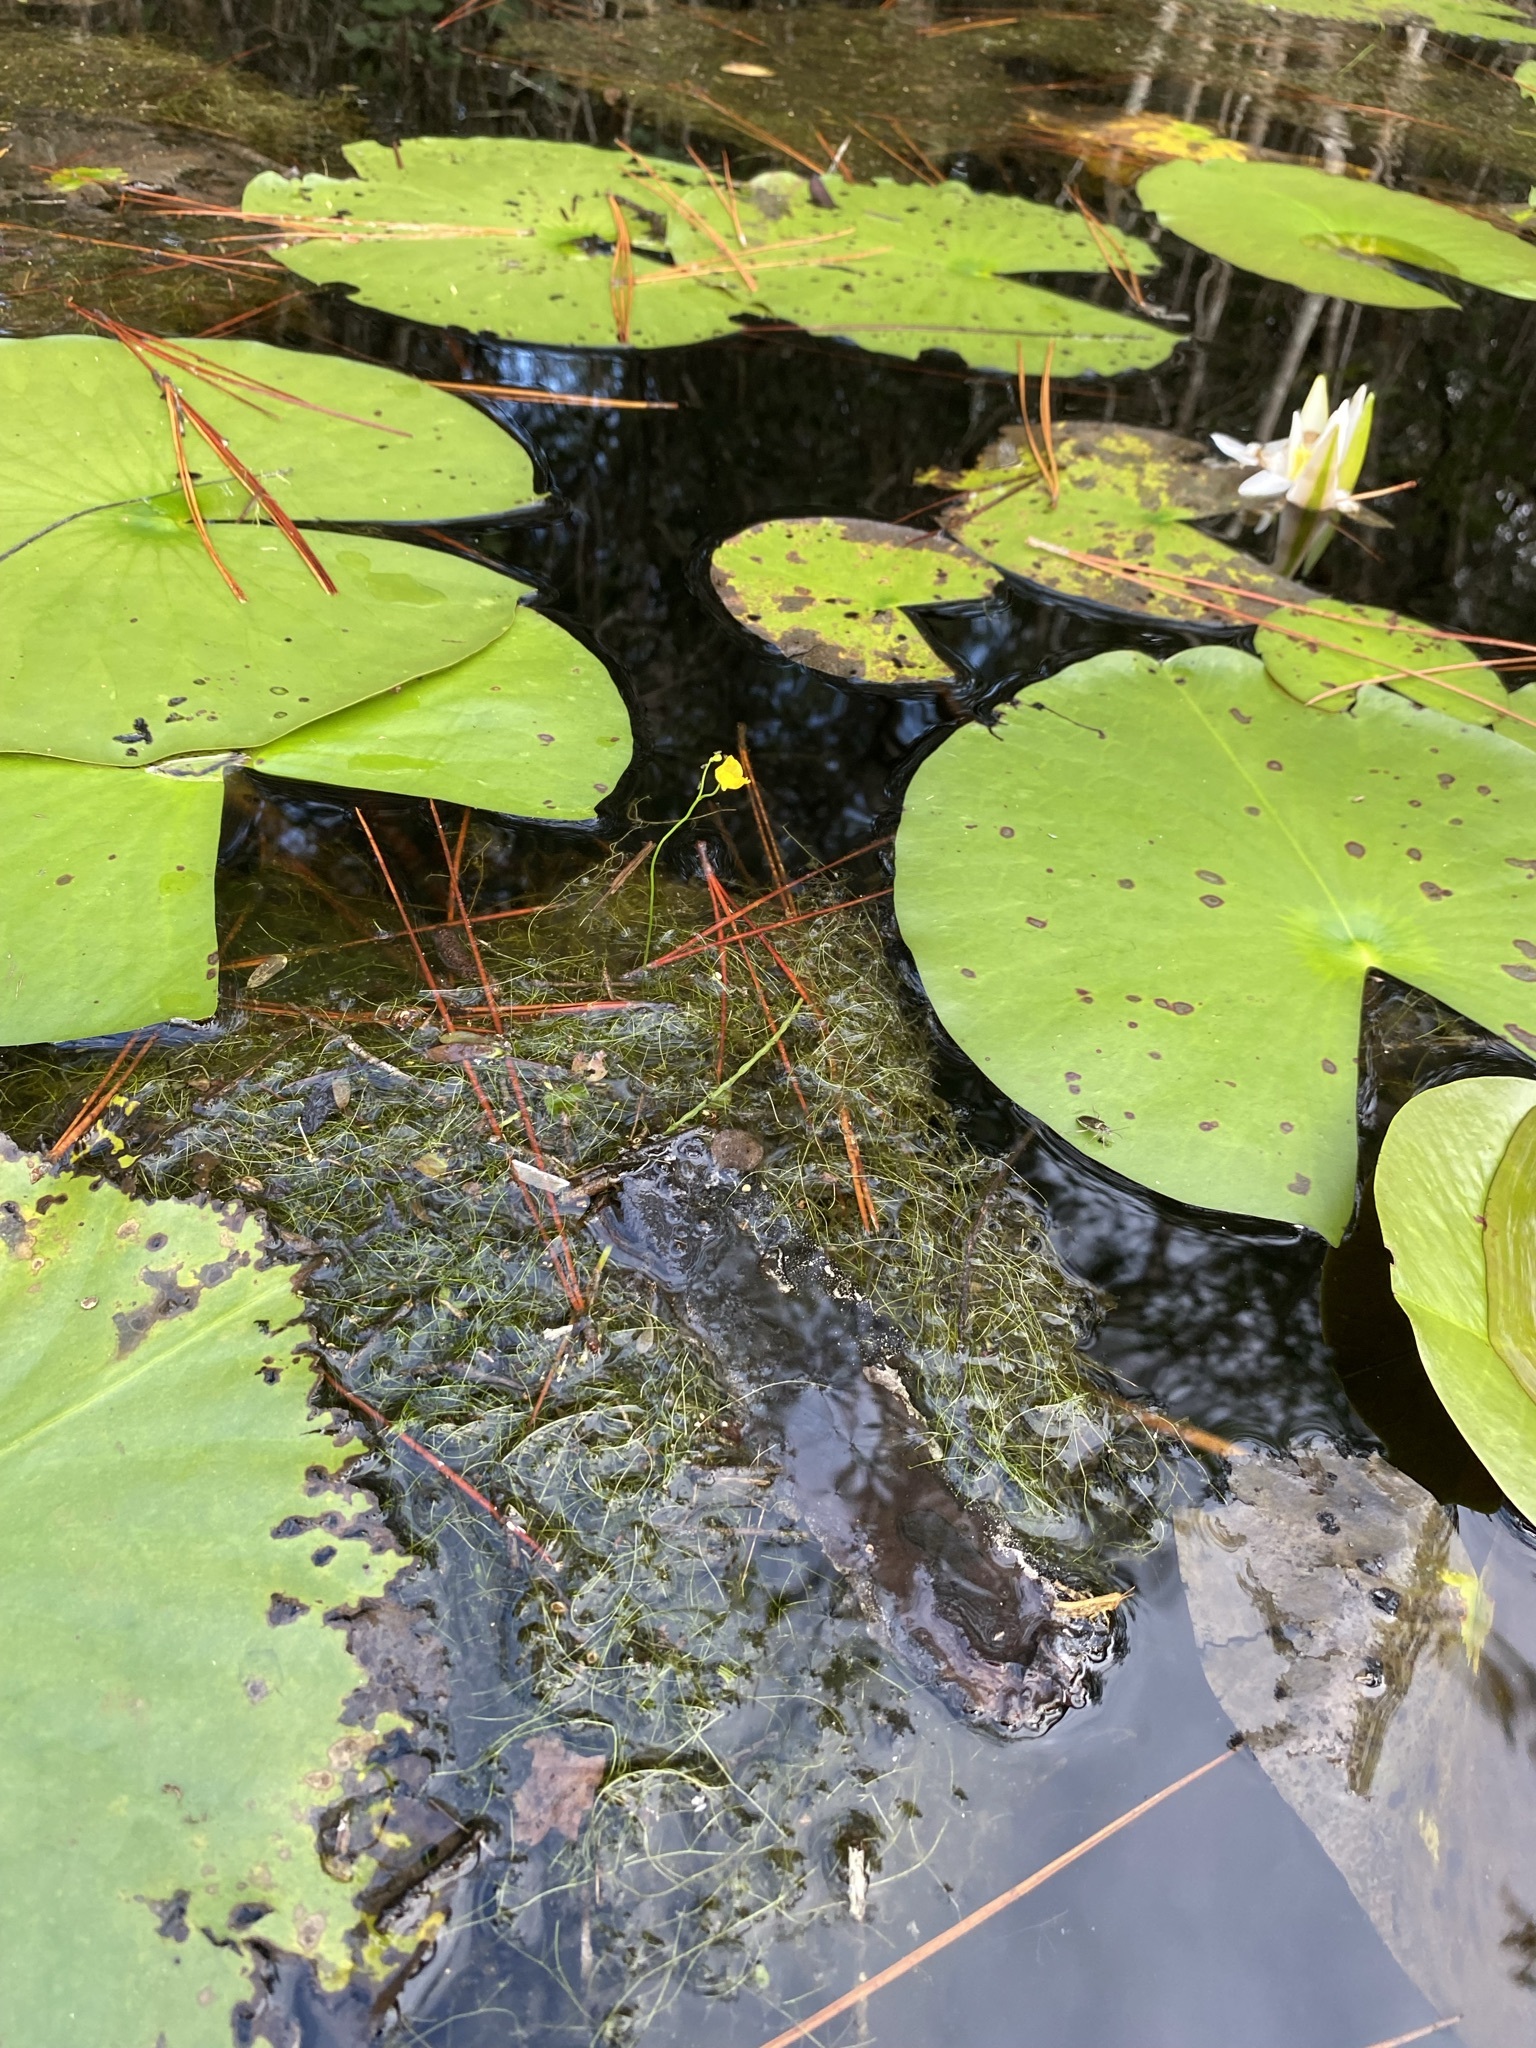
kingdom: Plantae
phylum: Tracheophyta
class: Magnoliopsida
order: Lamiales
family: Lentibulariaceae
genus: Utricularia
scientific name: Utricularia gibba
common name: Humped bladderwort
